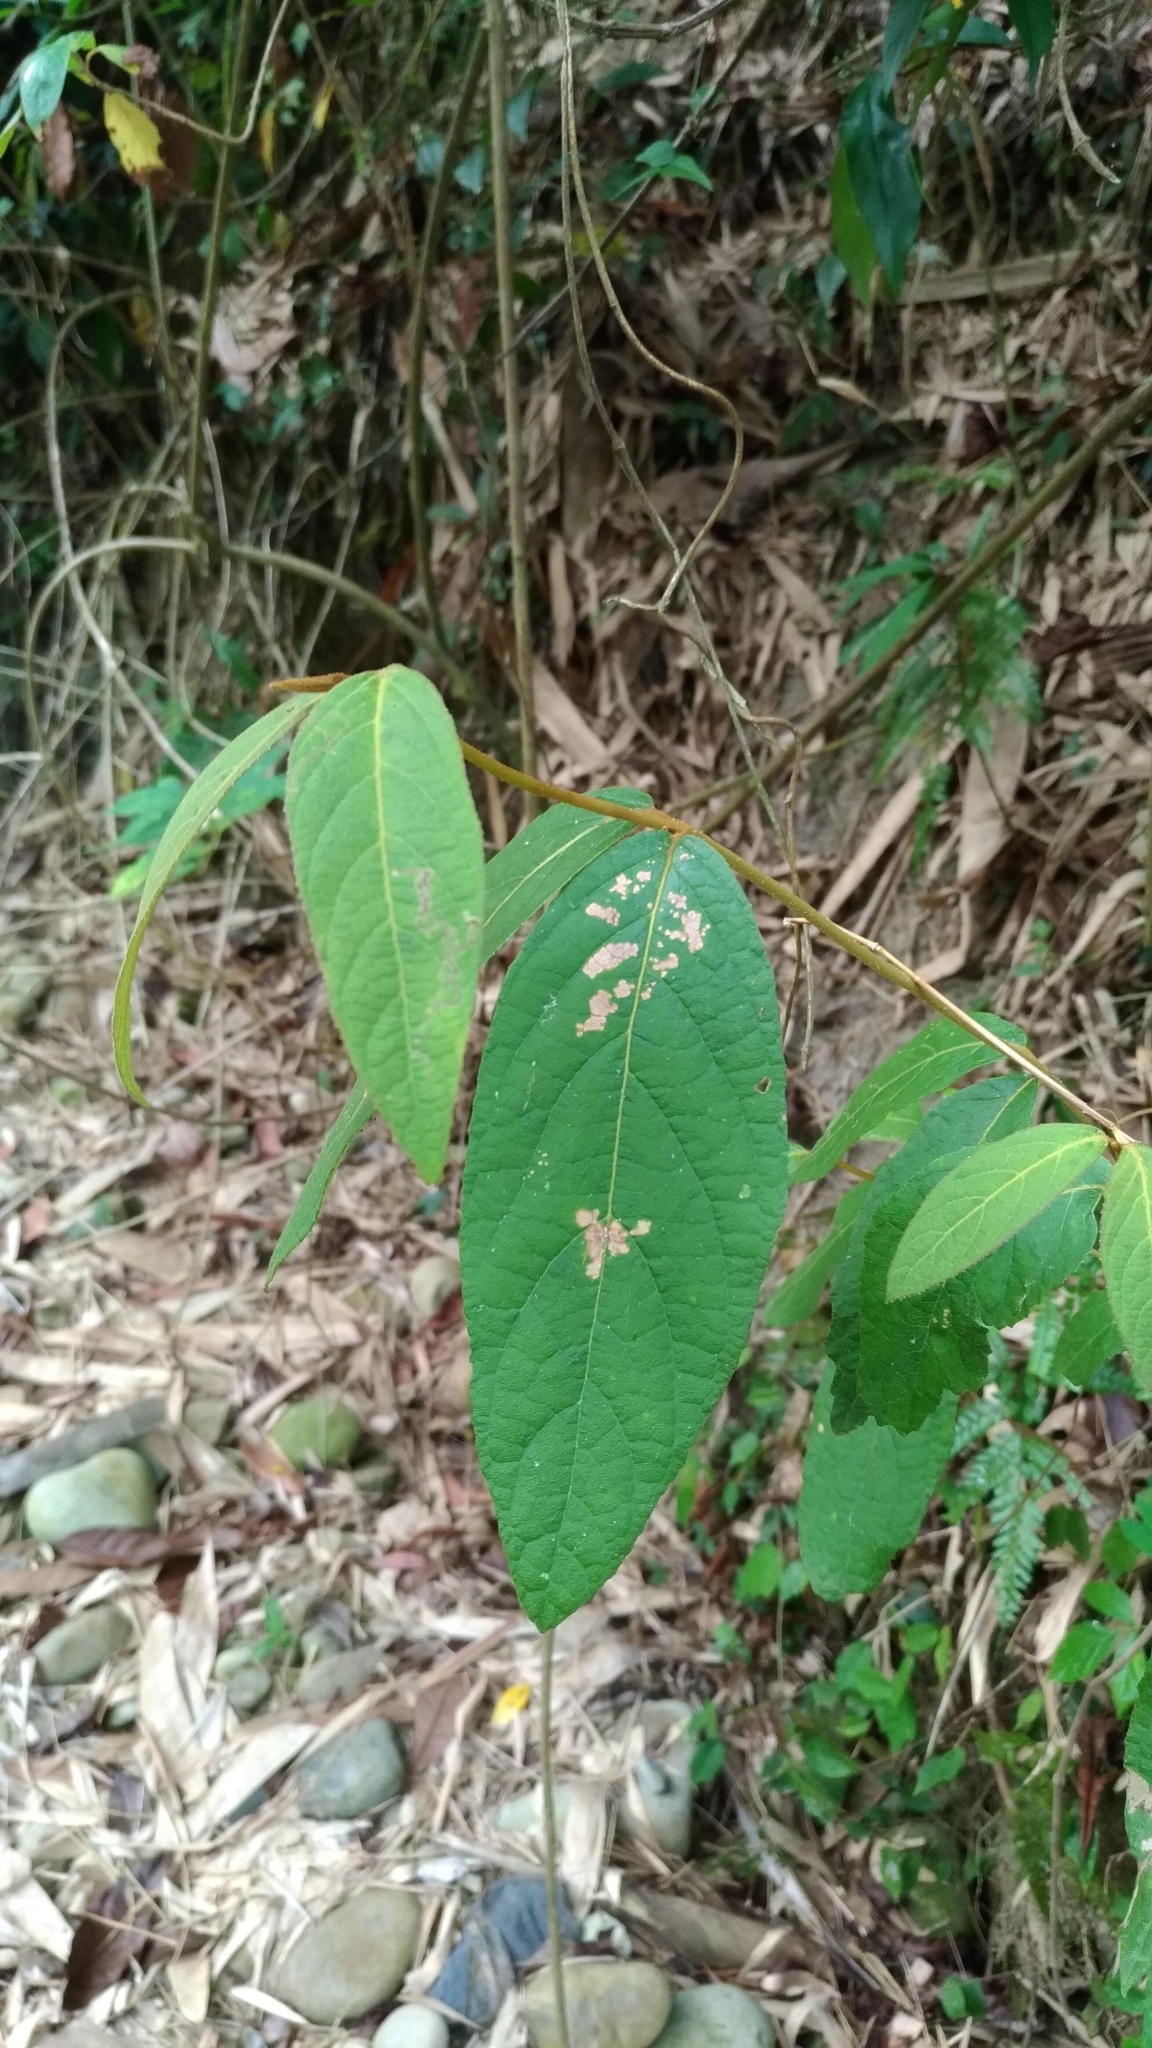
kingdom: Plantae
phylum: Tracheophyta
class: Magnoliopsida
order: Lamiales
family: Lamiaceae
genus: Callicarpa
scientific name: Callicarpa pedunculata
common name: Velvetleaf
